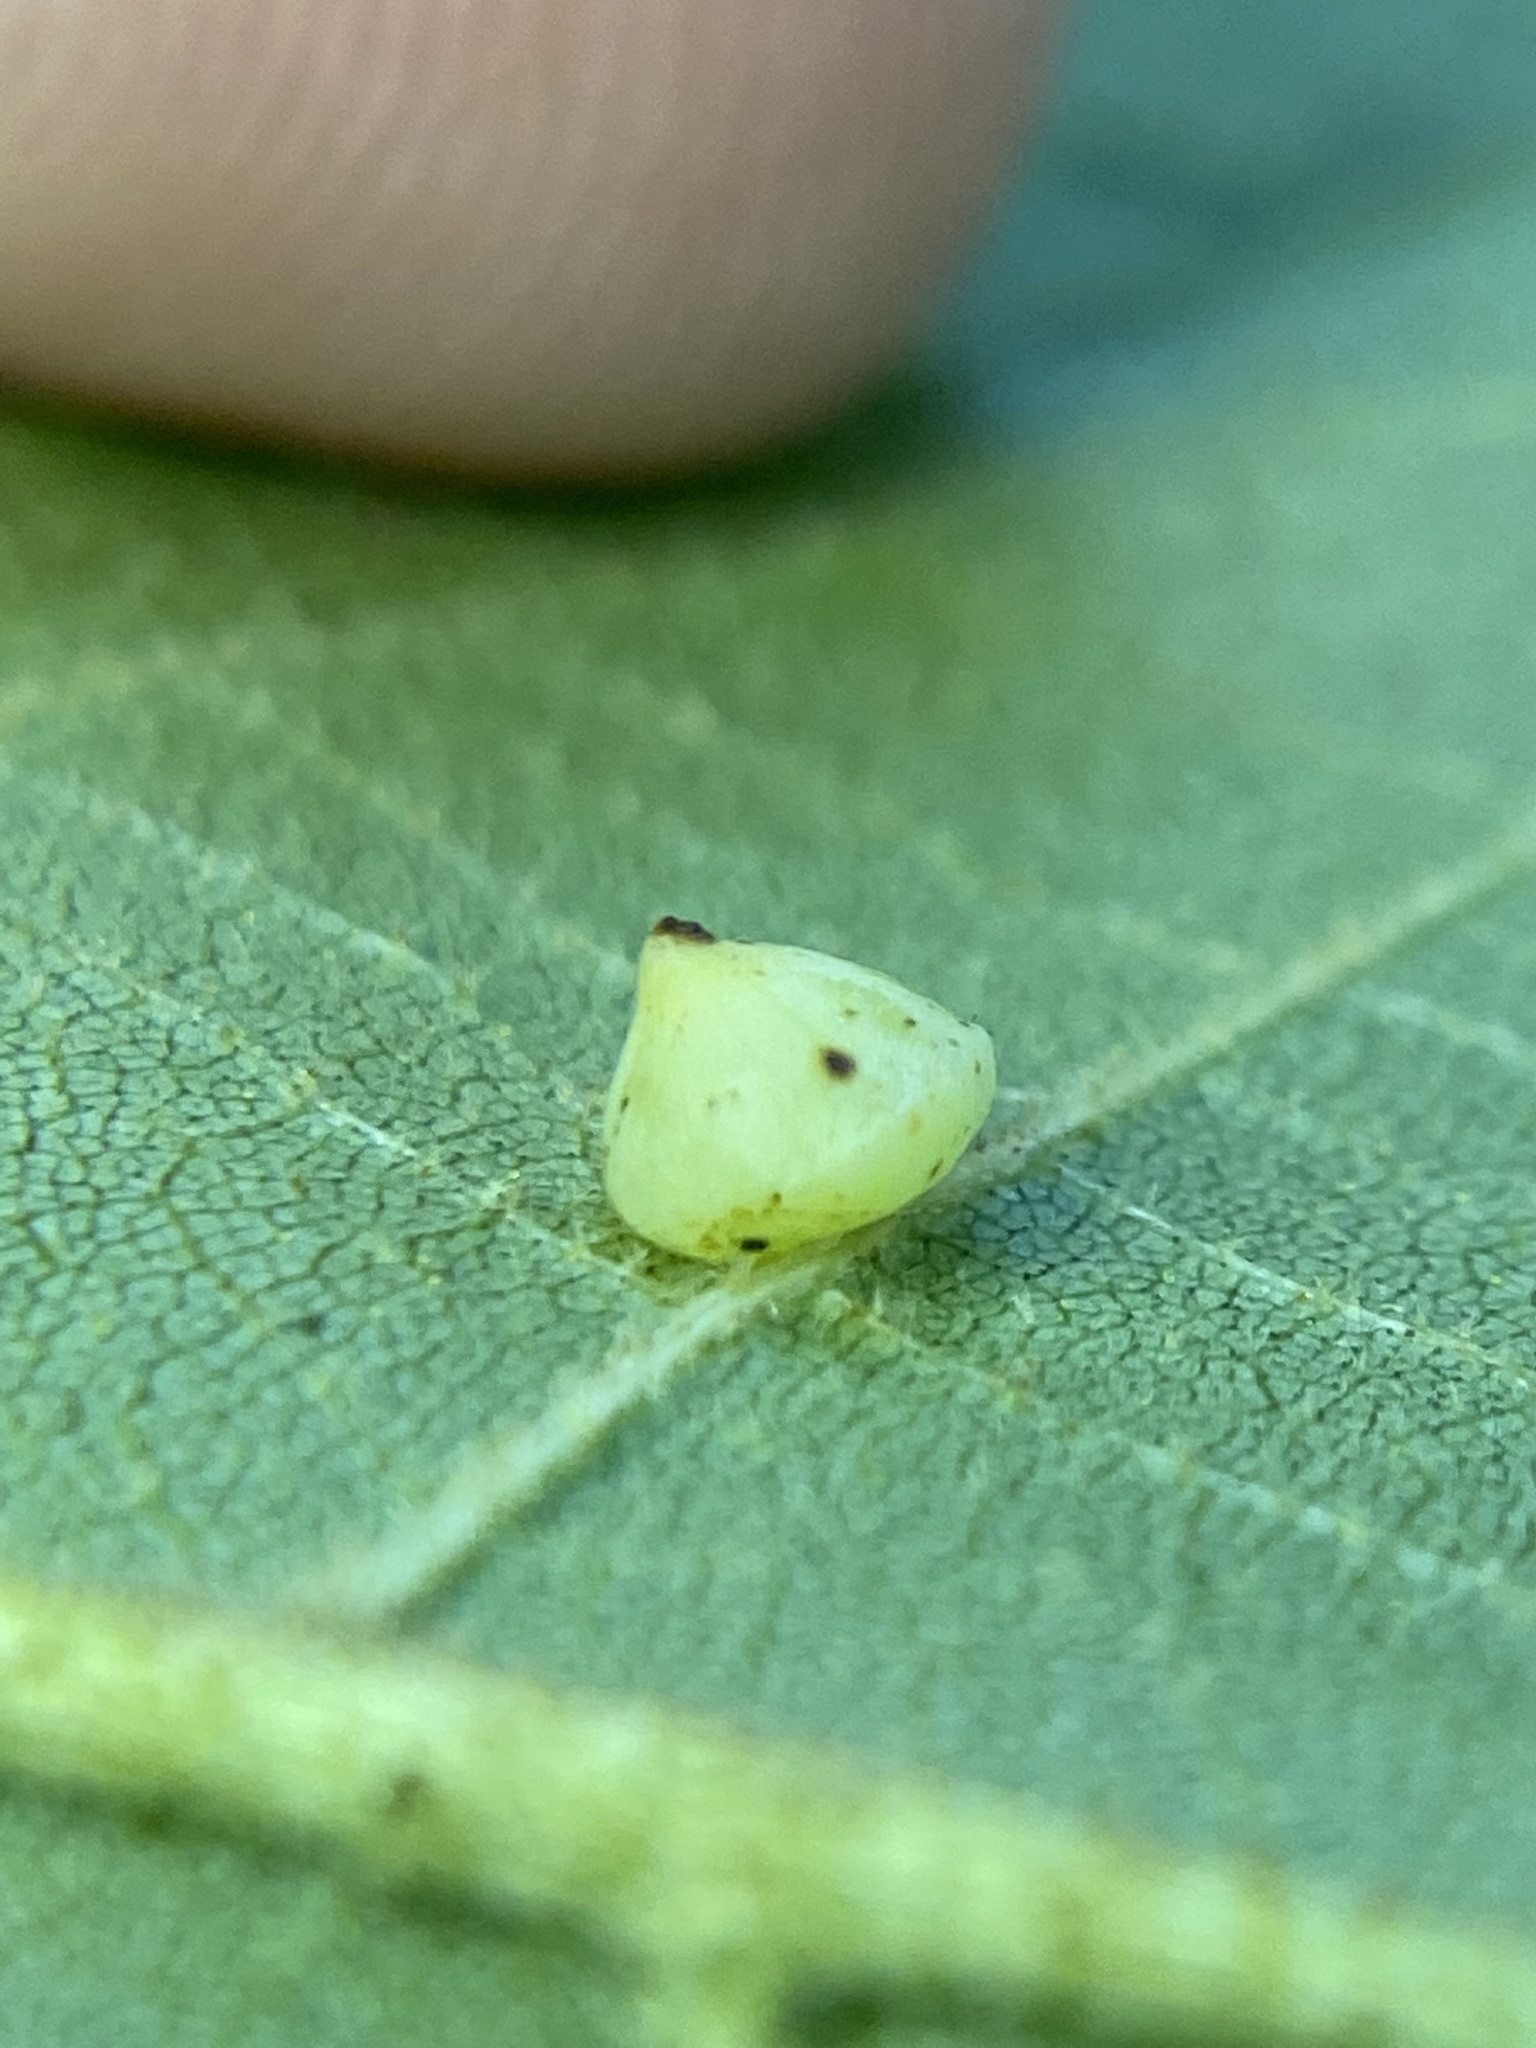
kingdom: Animalia
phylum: Arthropoda
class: Insecta
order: Diptera
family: Cecidomyiidae
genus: Caryomyia
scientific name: Caryomyia sanguinolenta
